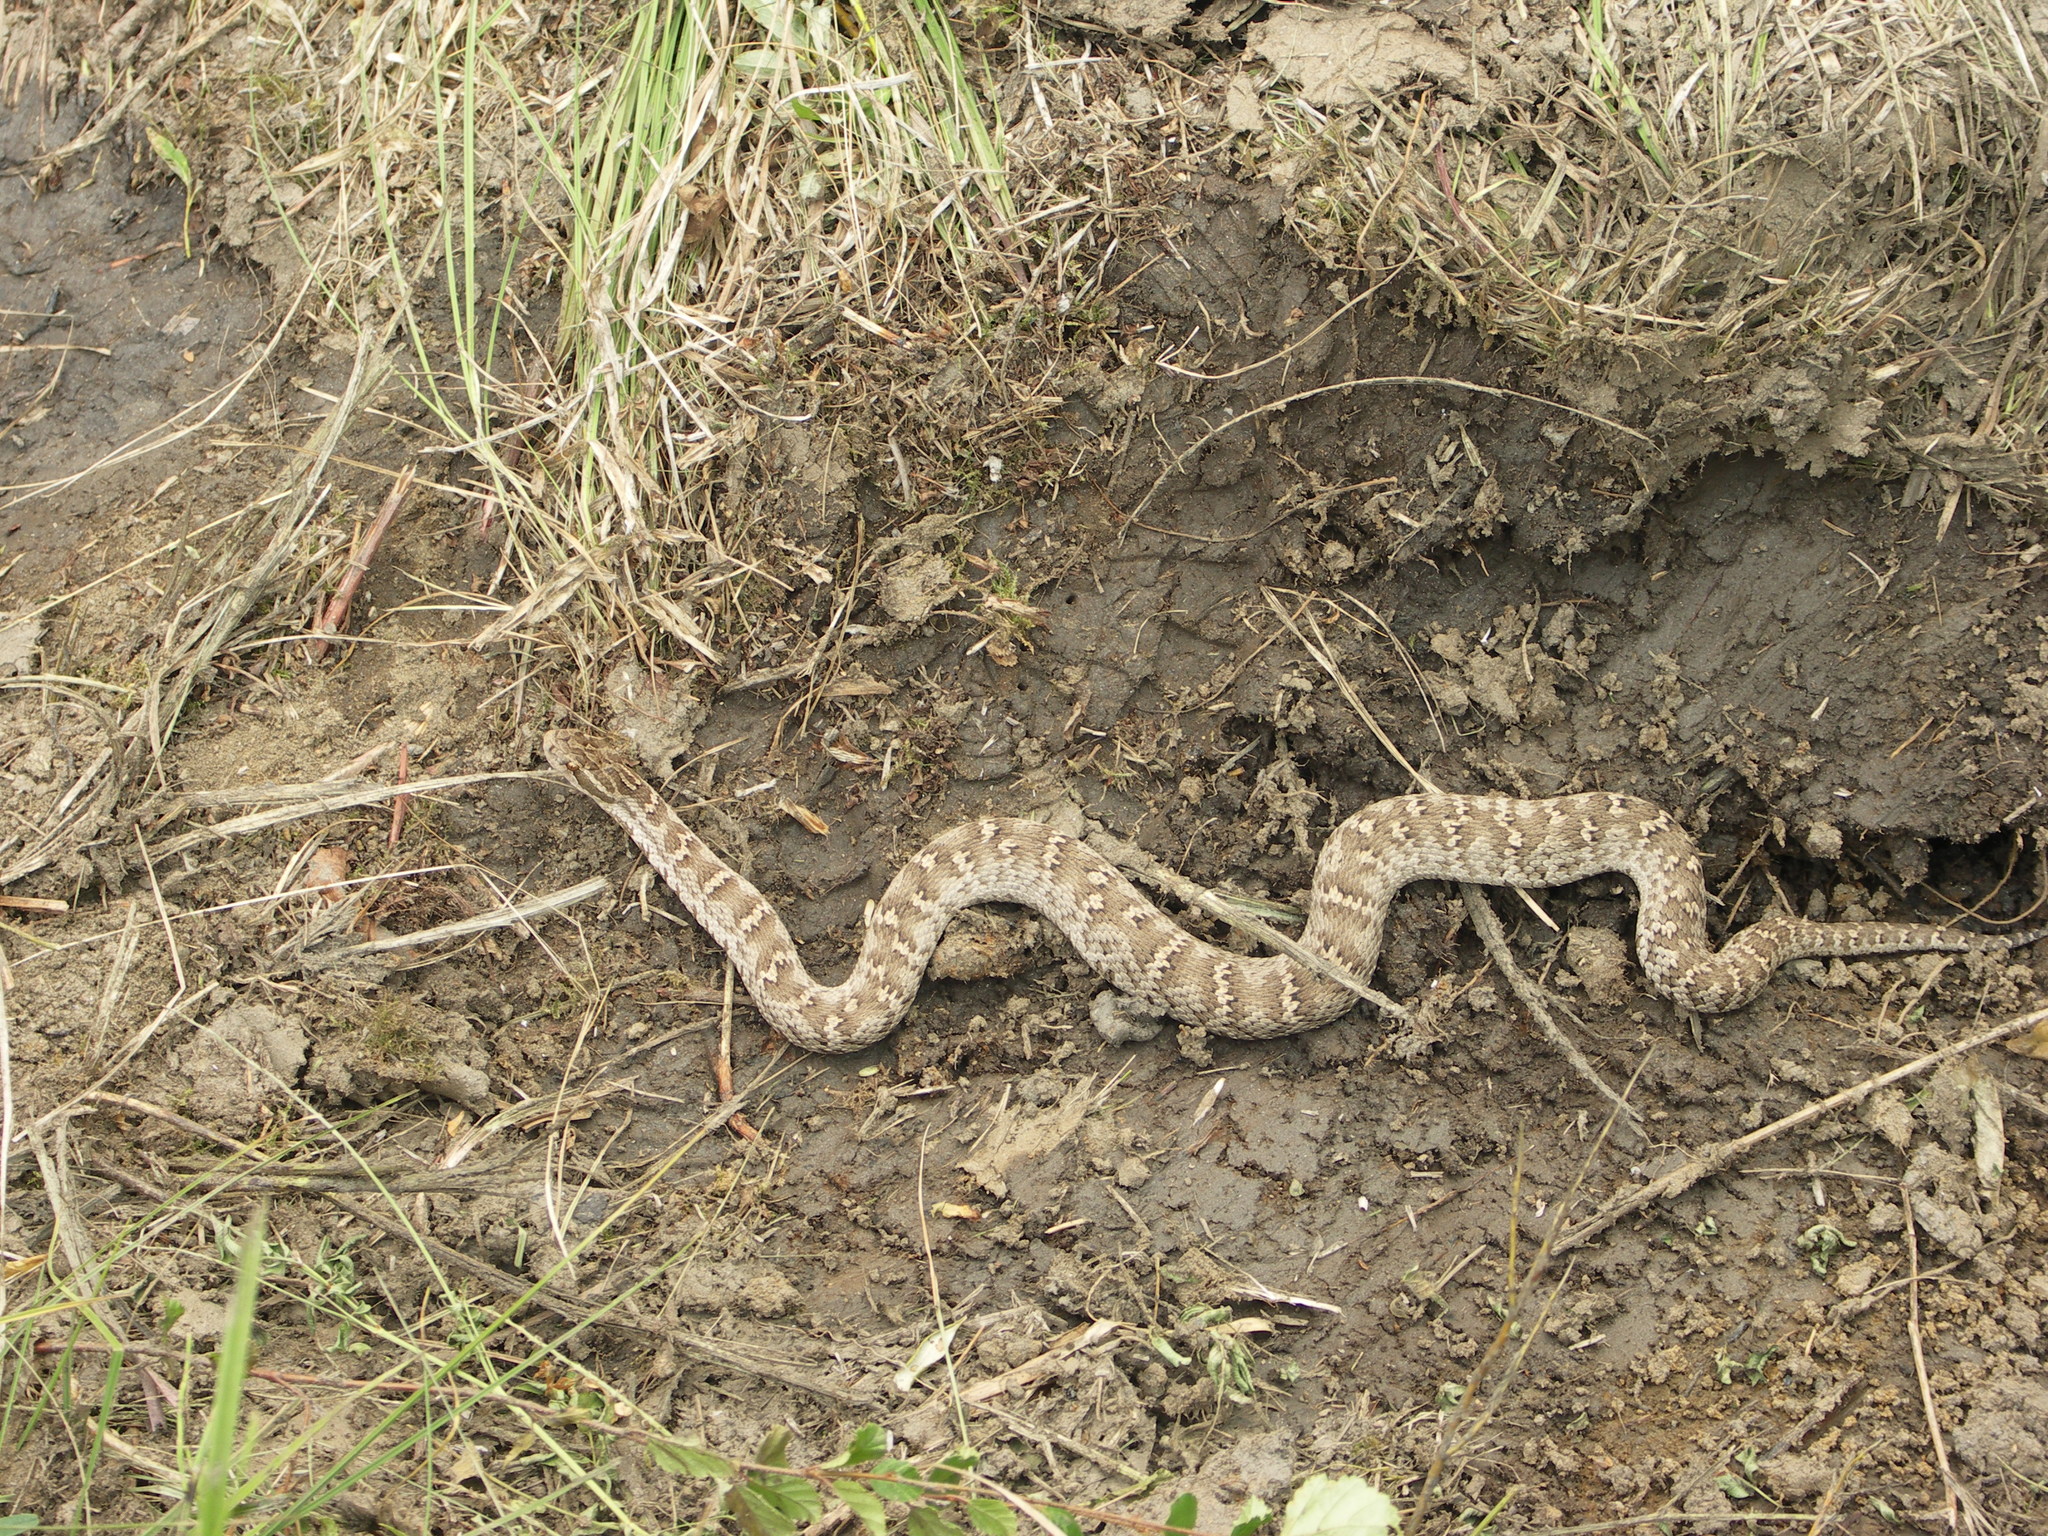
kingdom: Animalia
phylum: Chordata
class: Squamata
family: Viperidae
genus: Gloydius
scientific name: Gloydius halys
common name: Halys pit viper
